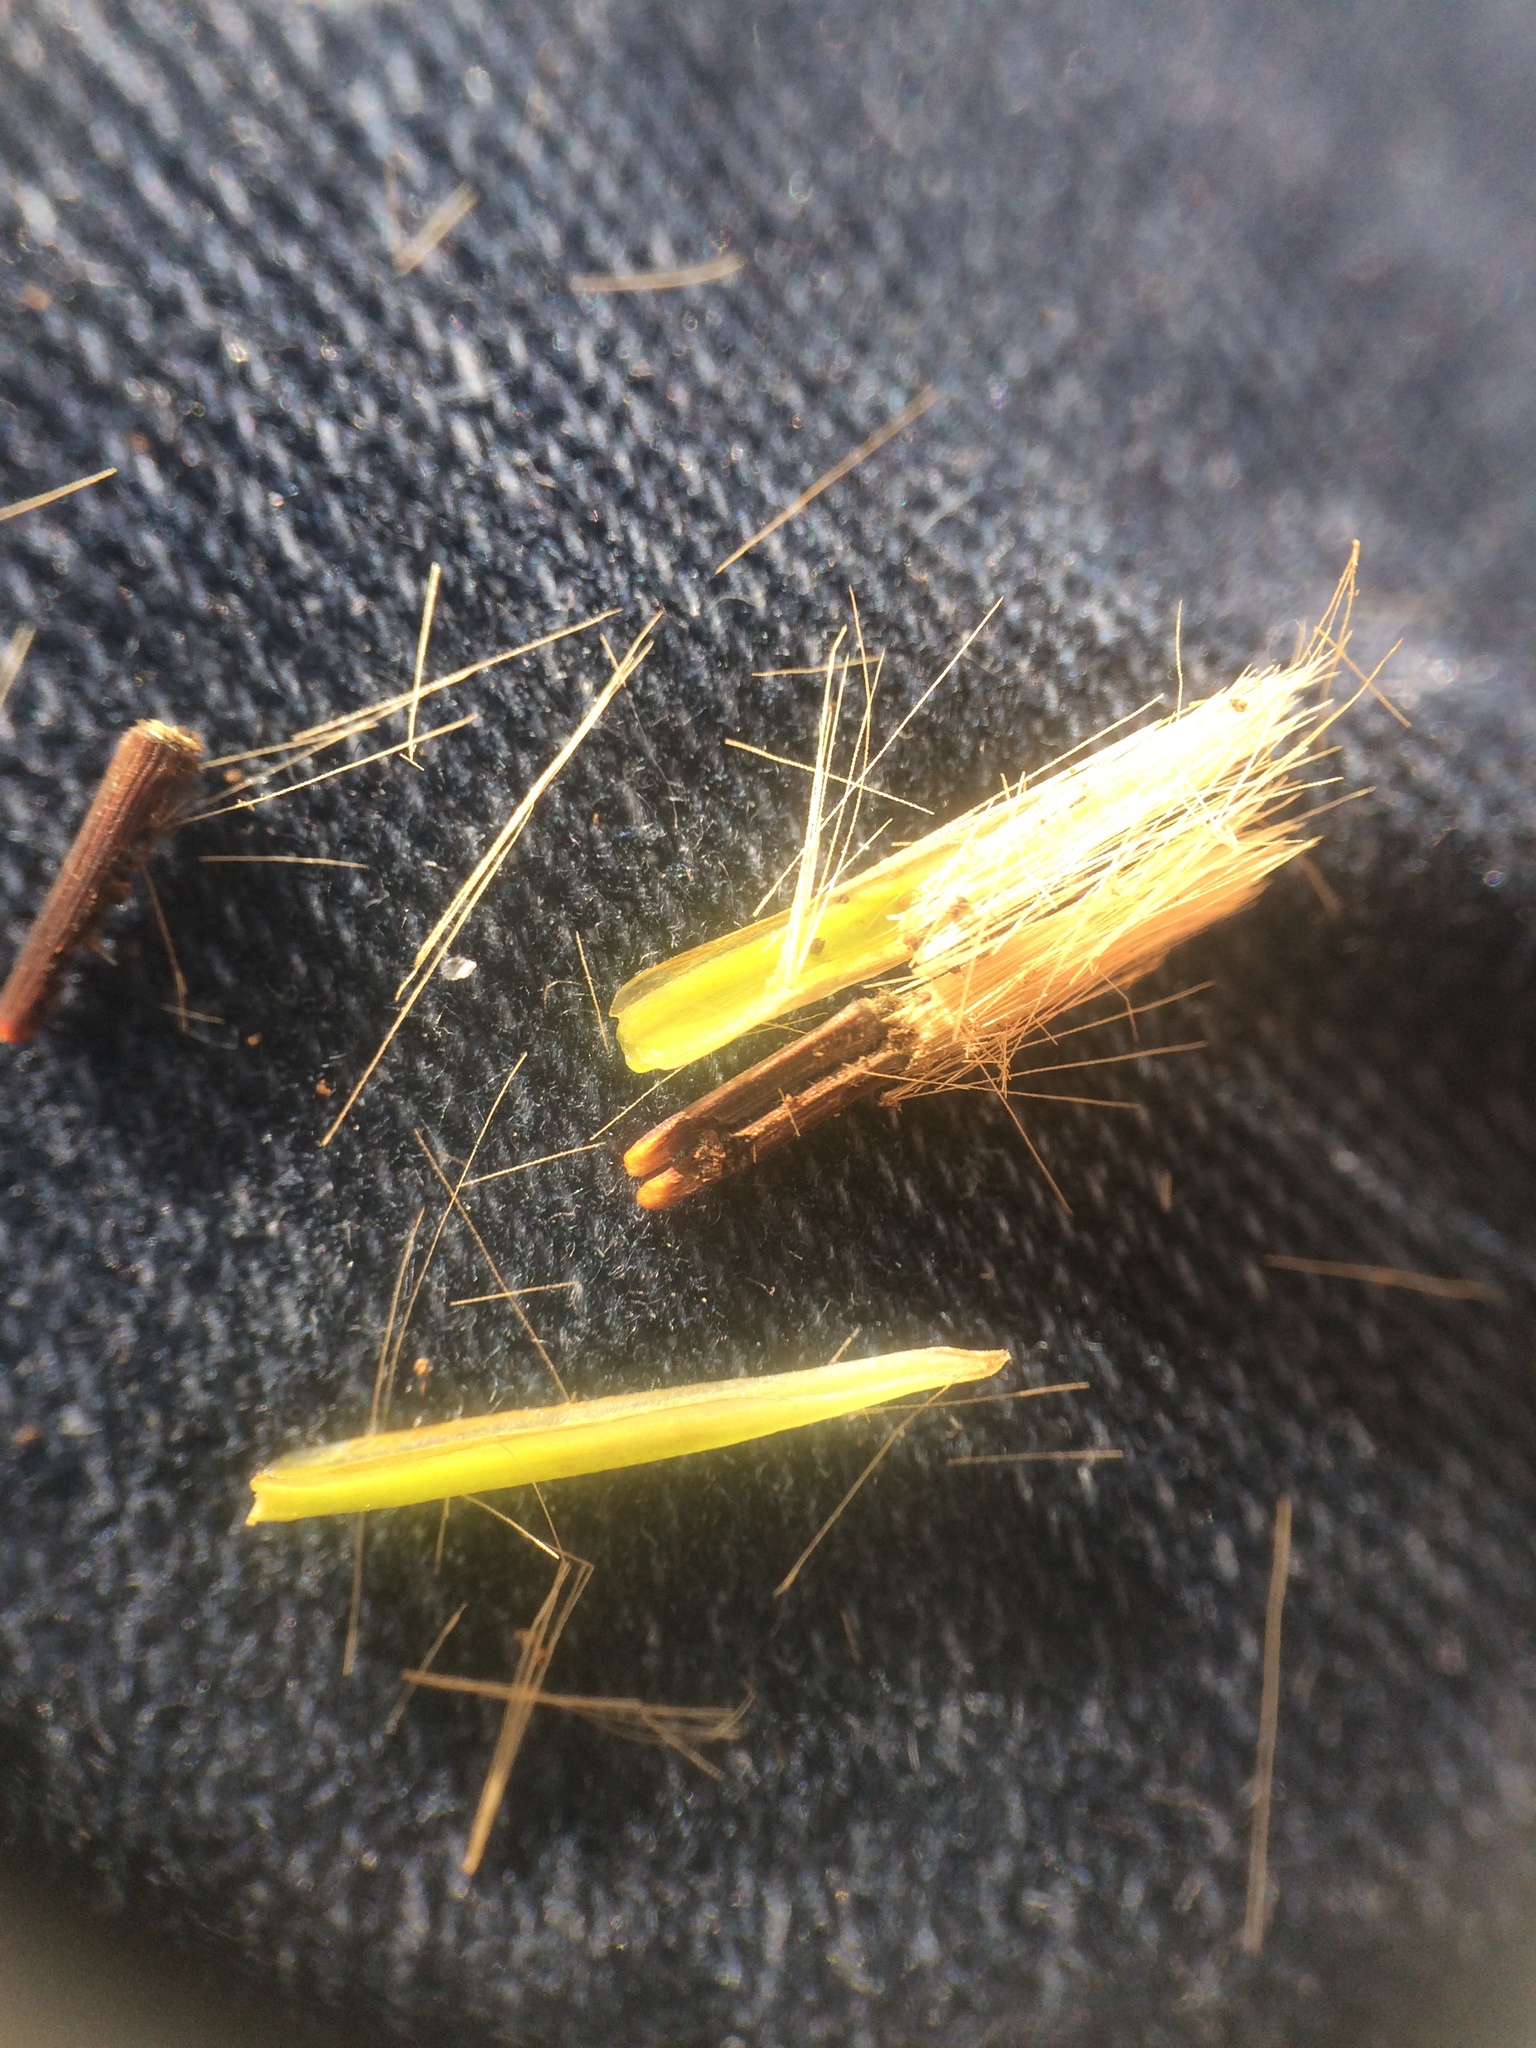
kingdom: Plantae
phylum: Tracheophyta
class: Magnoliopsida
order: Asterales
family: Asteraceae
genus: Nabalus
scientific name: Nabalus altissima
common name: Tall rattlesnakeroot
